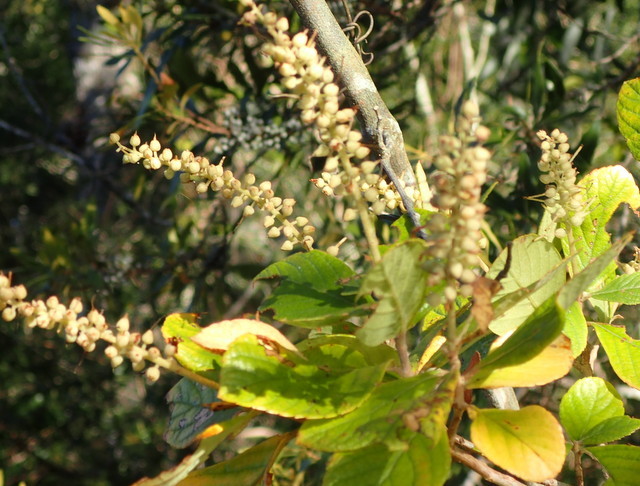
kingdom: Plantae
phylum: Tracheophyta
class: Magnoliopsida
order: Ericales
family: Clethraceae
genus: Clethra
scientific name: Clethra alnifolia
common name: Sweet pepperbush
